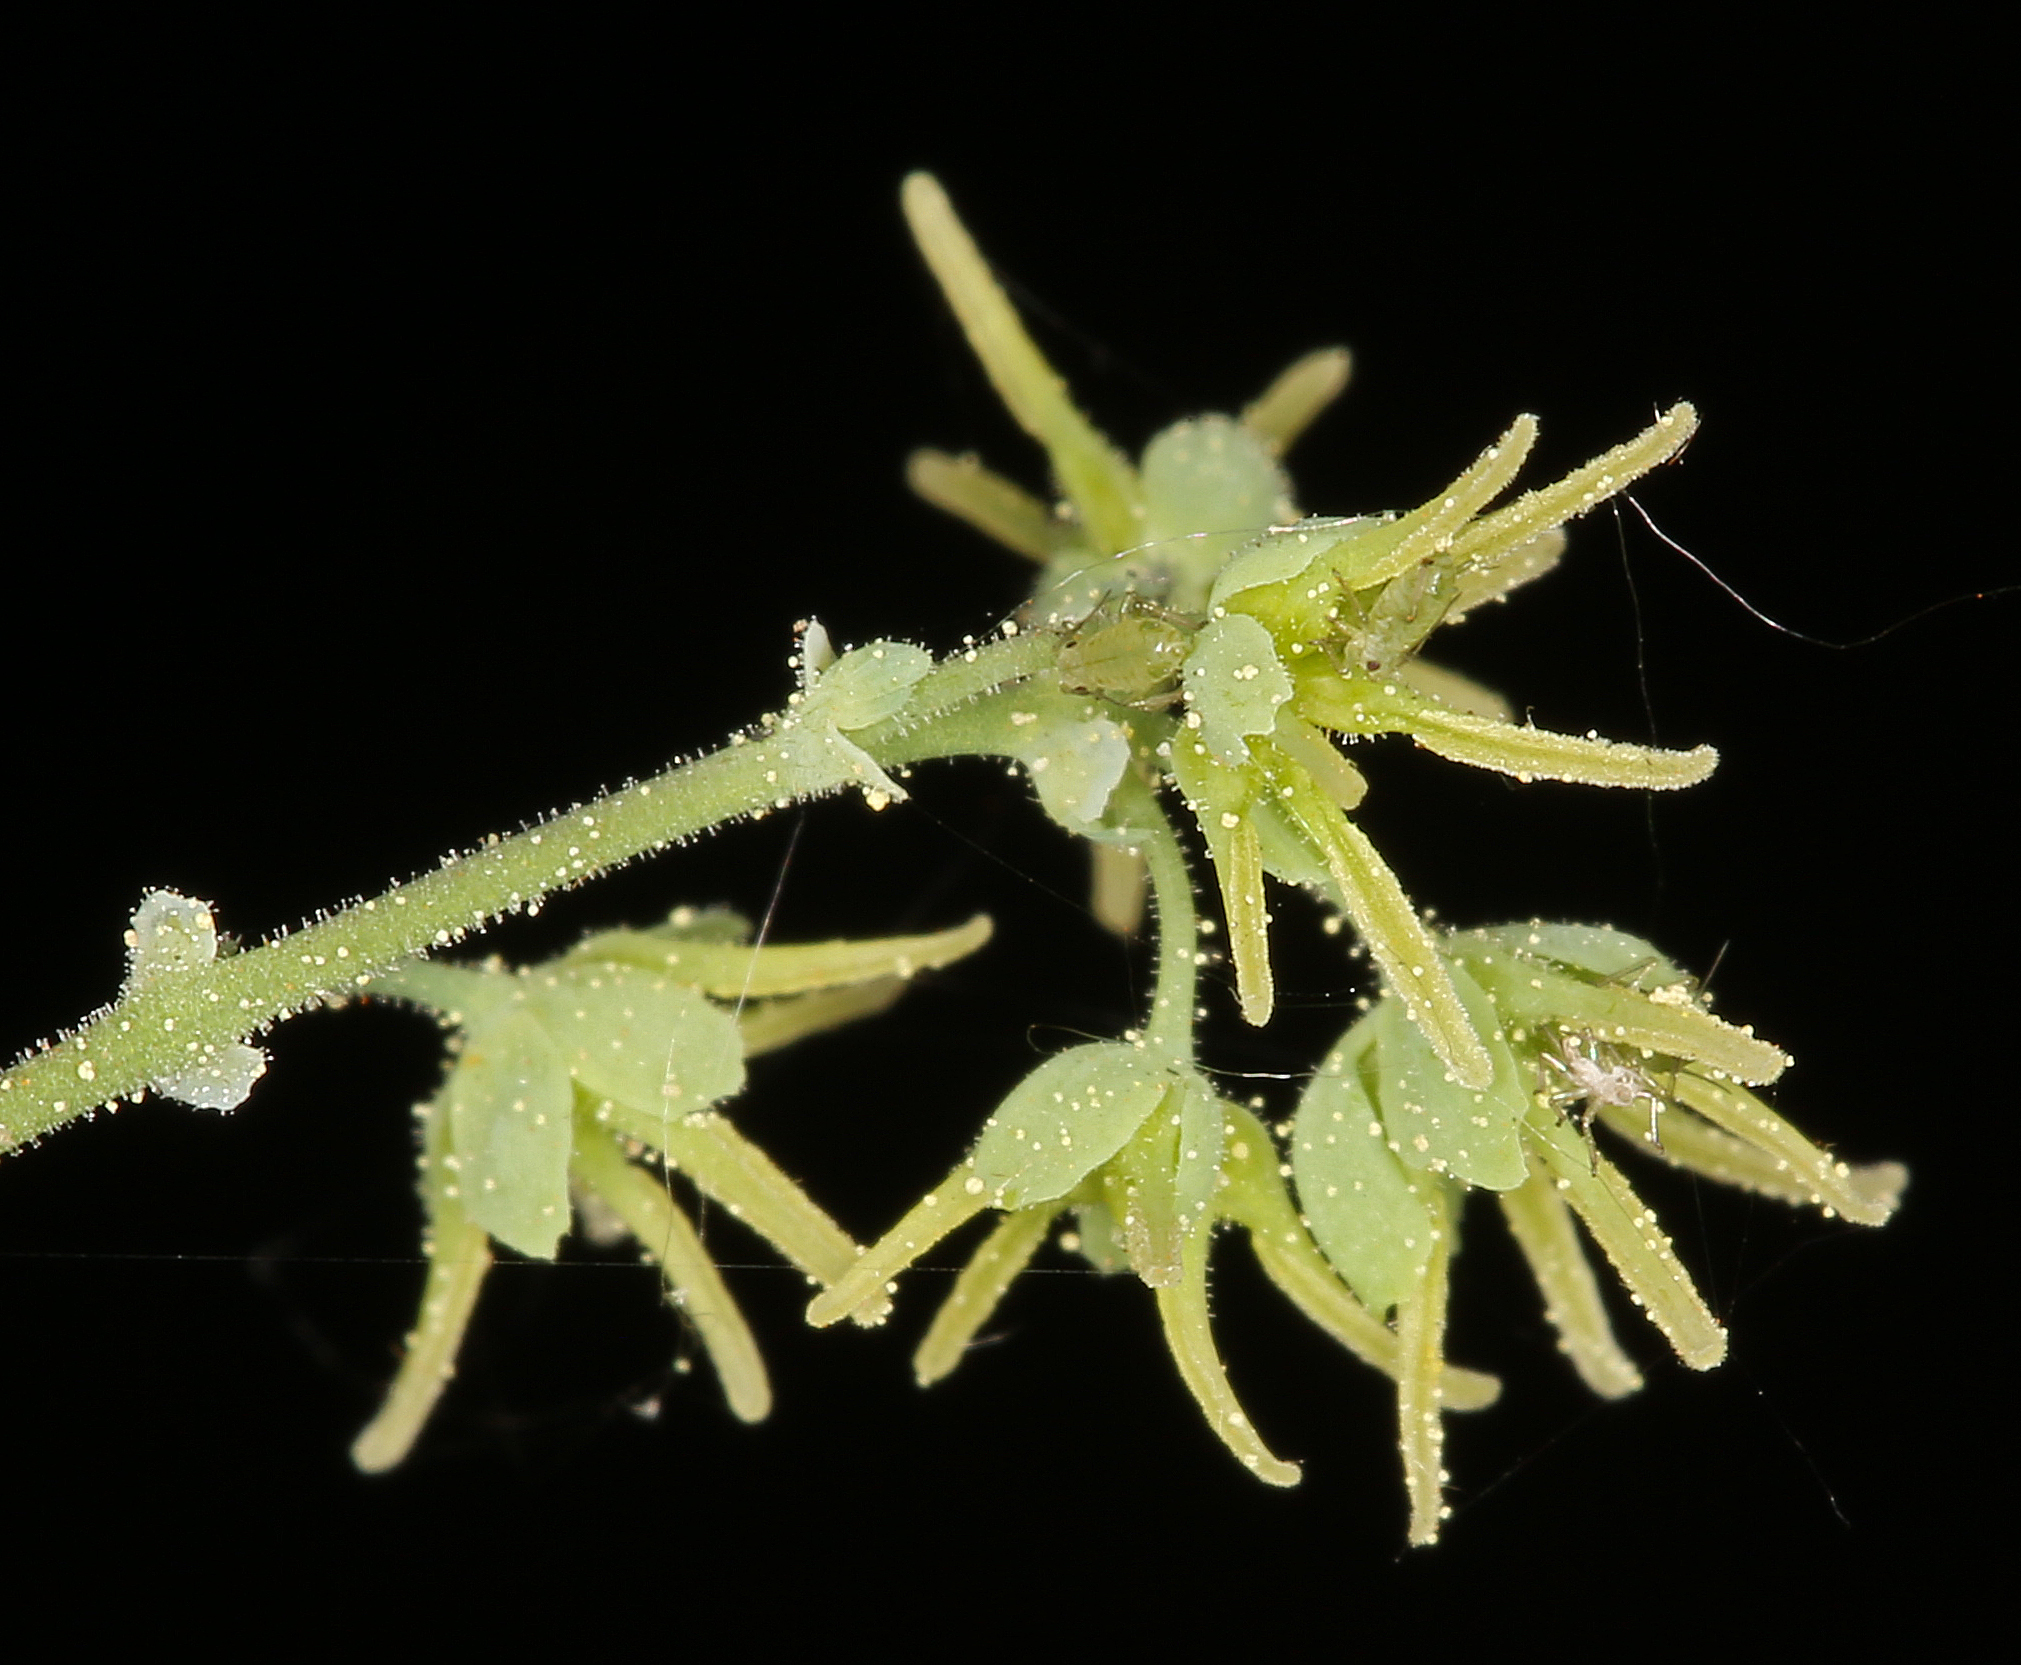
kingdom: Plantae
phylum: Tracheophyta
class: Magnoliopsida
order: Ranunculales
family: Ranunculaceae
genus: Thalictrum
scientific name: Thalictrum fendleri
